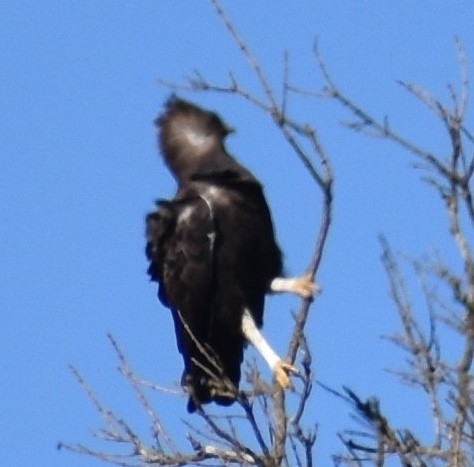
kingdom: Animalia
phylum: Chordata
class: Aves
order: Accipitriformes
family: Accipitridae
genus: Lophaetus
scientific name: Lophaetus occipitalis
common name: Long-crested eagle
